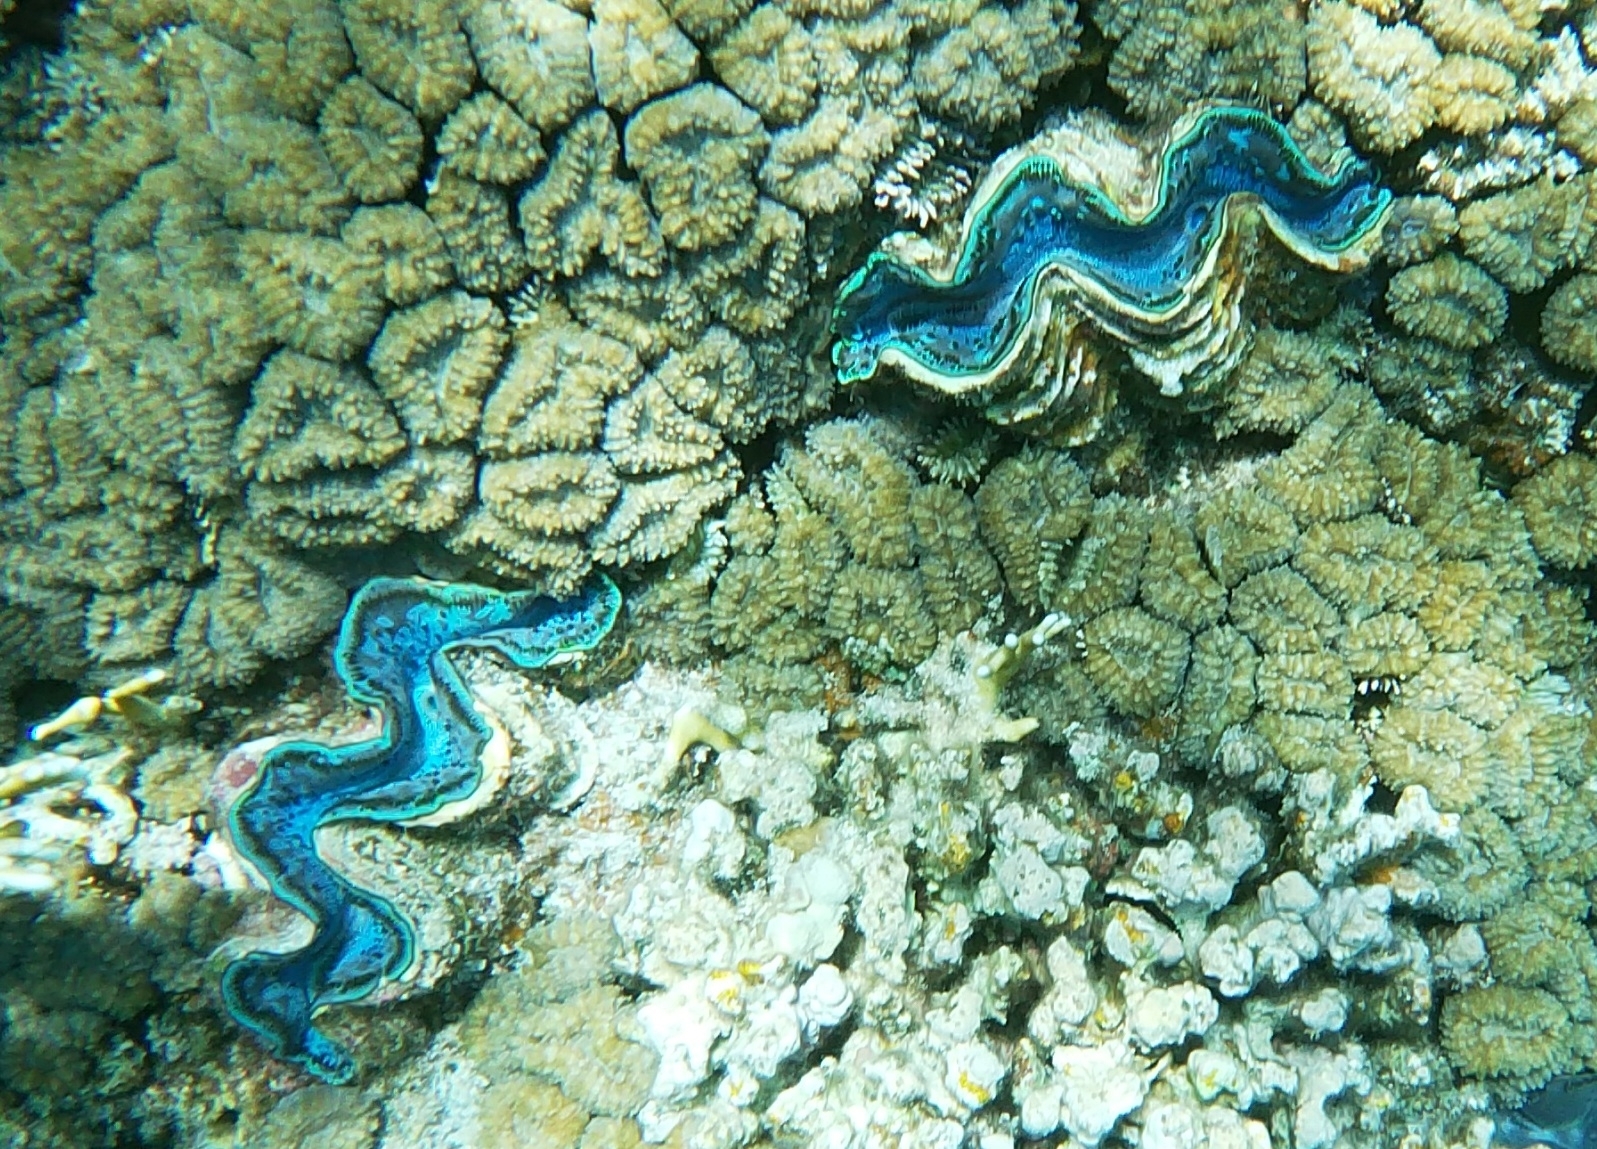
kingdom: Animalia
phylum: Mollusca
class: Bivalvia
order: Cardiida
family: Cardiidae
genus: Tridacna
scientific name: Tridacna maxima
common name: Small giant clam
